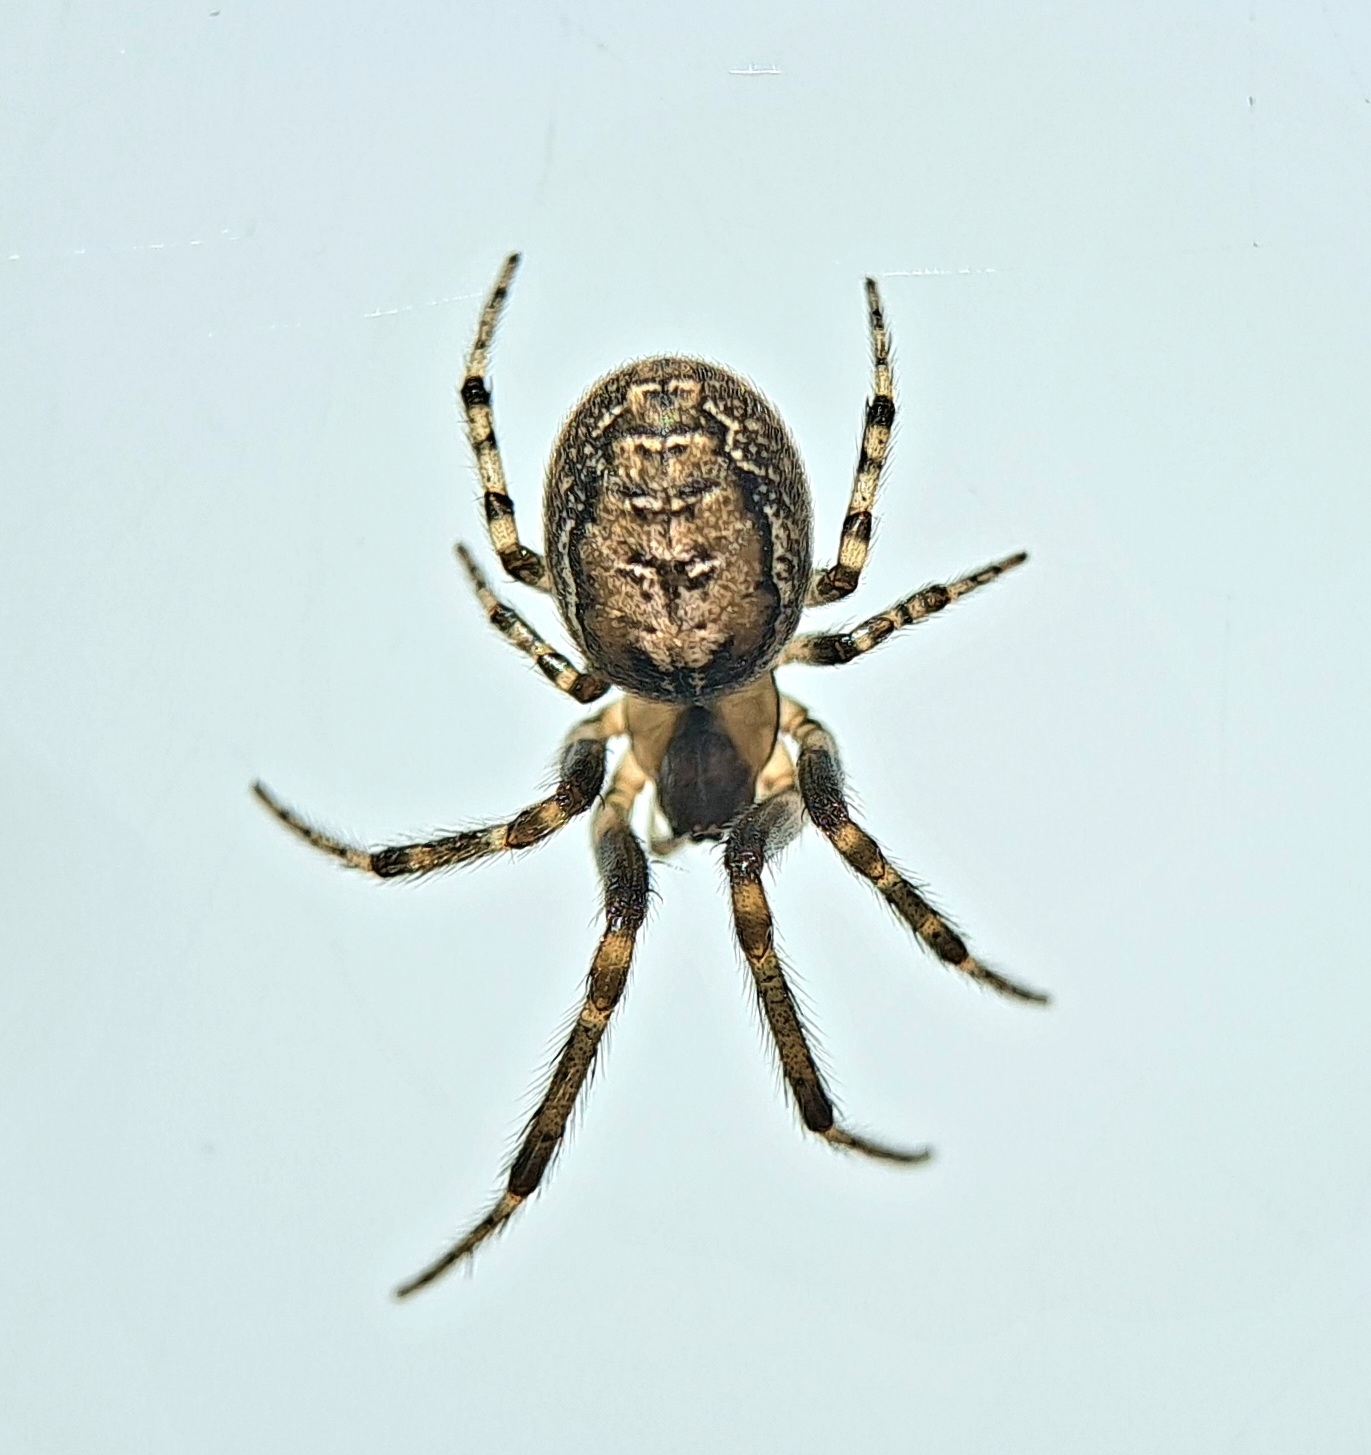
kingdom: Animalia
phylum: Arthropoda
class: Arachnida
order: Araneae
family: Araneidae
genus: Zygiella
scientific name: Zygiella x-notata
